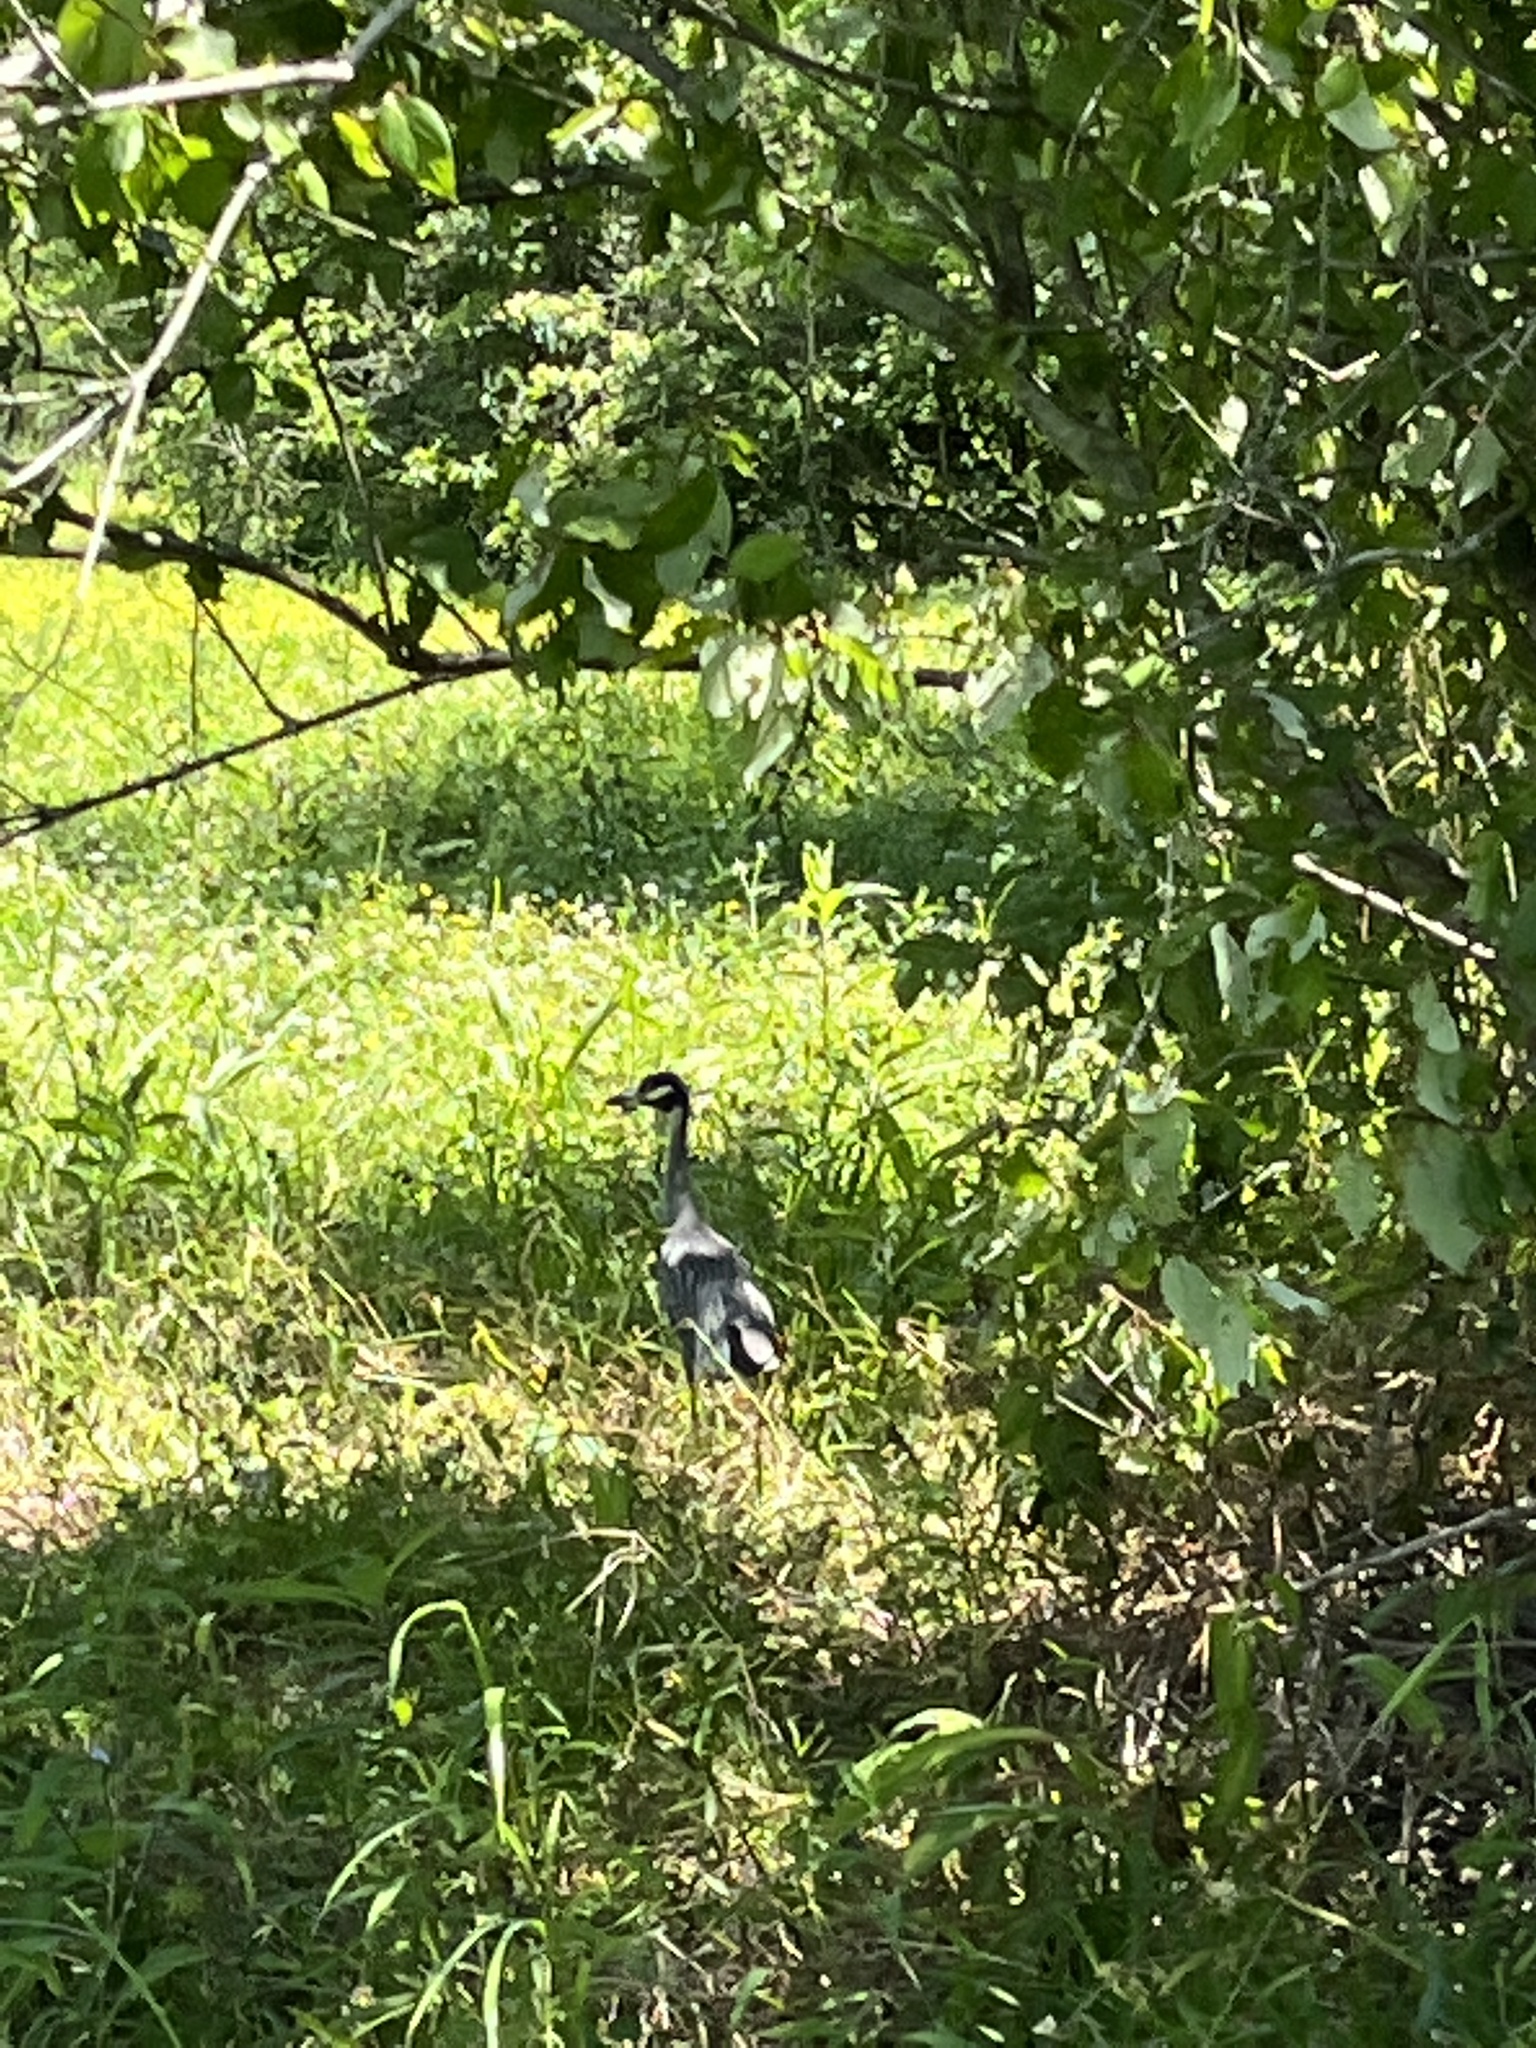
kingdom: Animalia
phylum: Chordata
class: Aves
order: Pelecaniformes
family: Ardeidae
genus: Nyctanassa
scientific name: Nyctanassa violacea
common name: Yellow-crowned night heron
